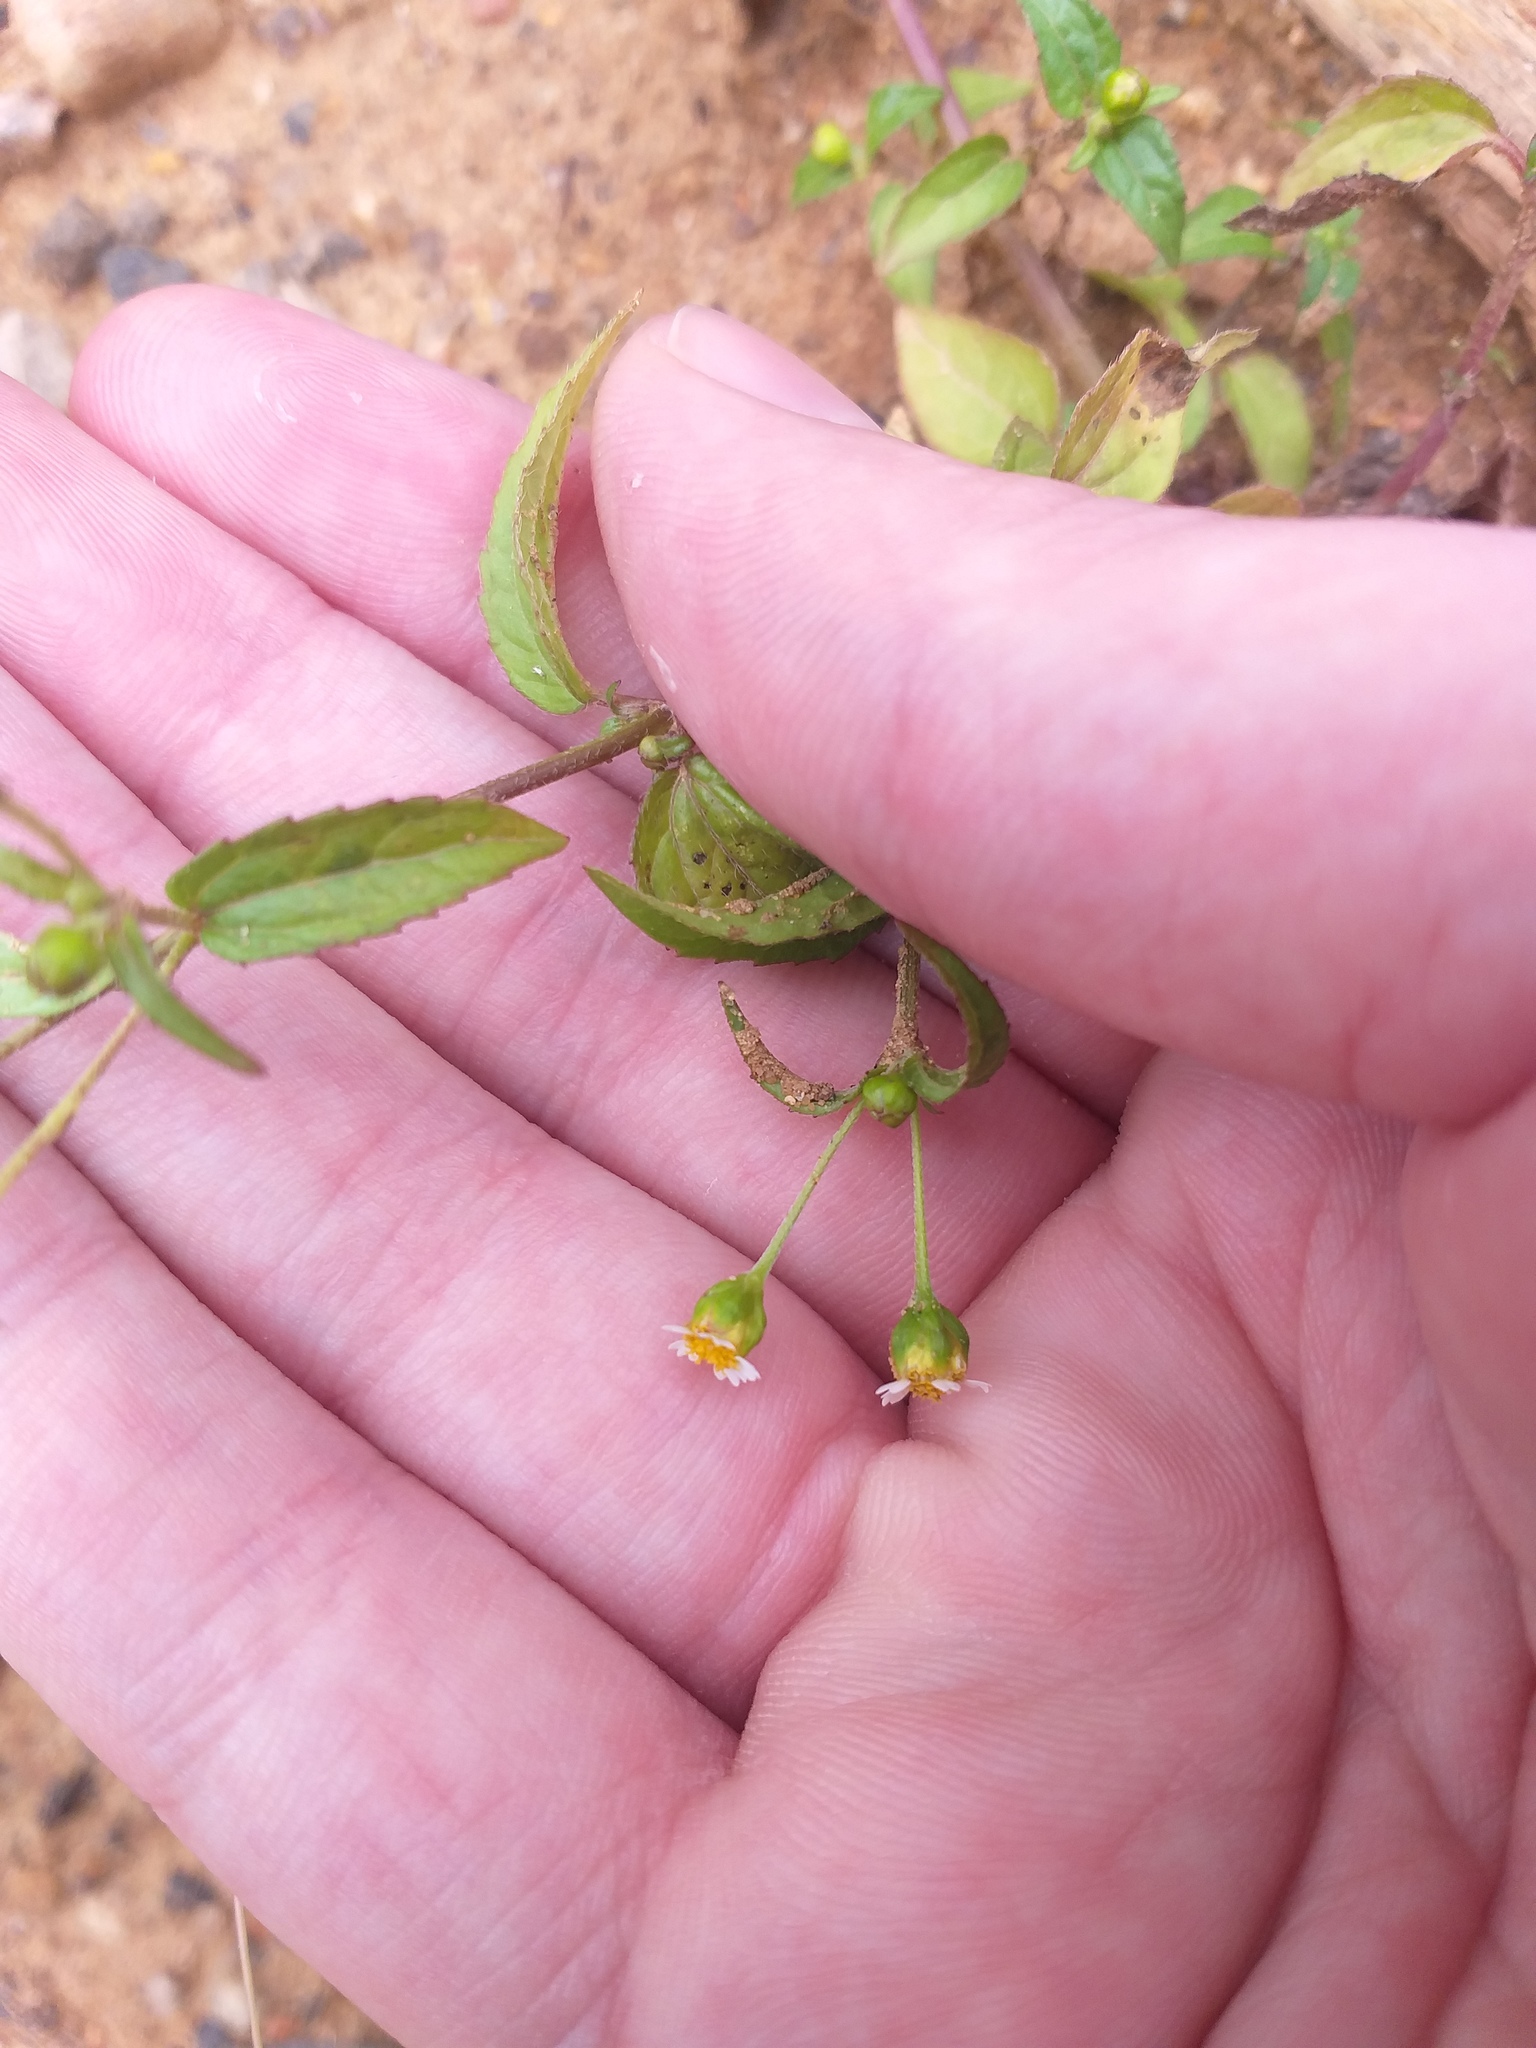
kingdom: Plantae
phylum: Tracheophyta
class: Magnoliopsida
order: Asterales
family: Asteraceae
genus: Galinsoga
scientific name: Galinsoga parviflora
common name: Gallant soldier
